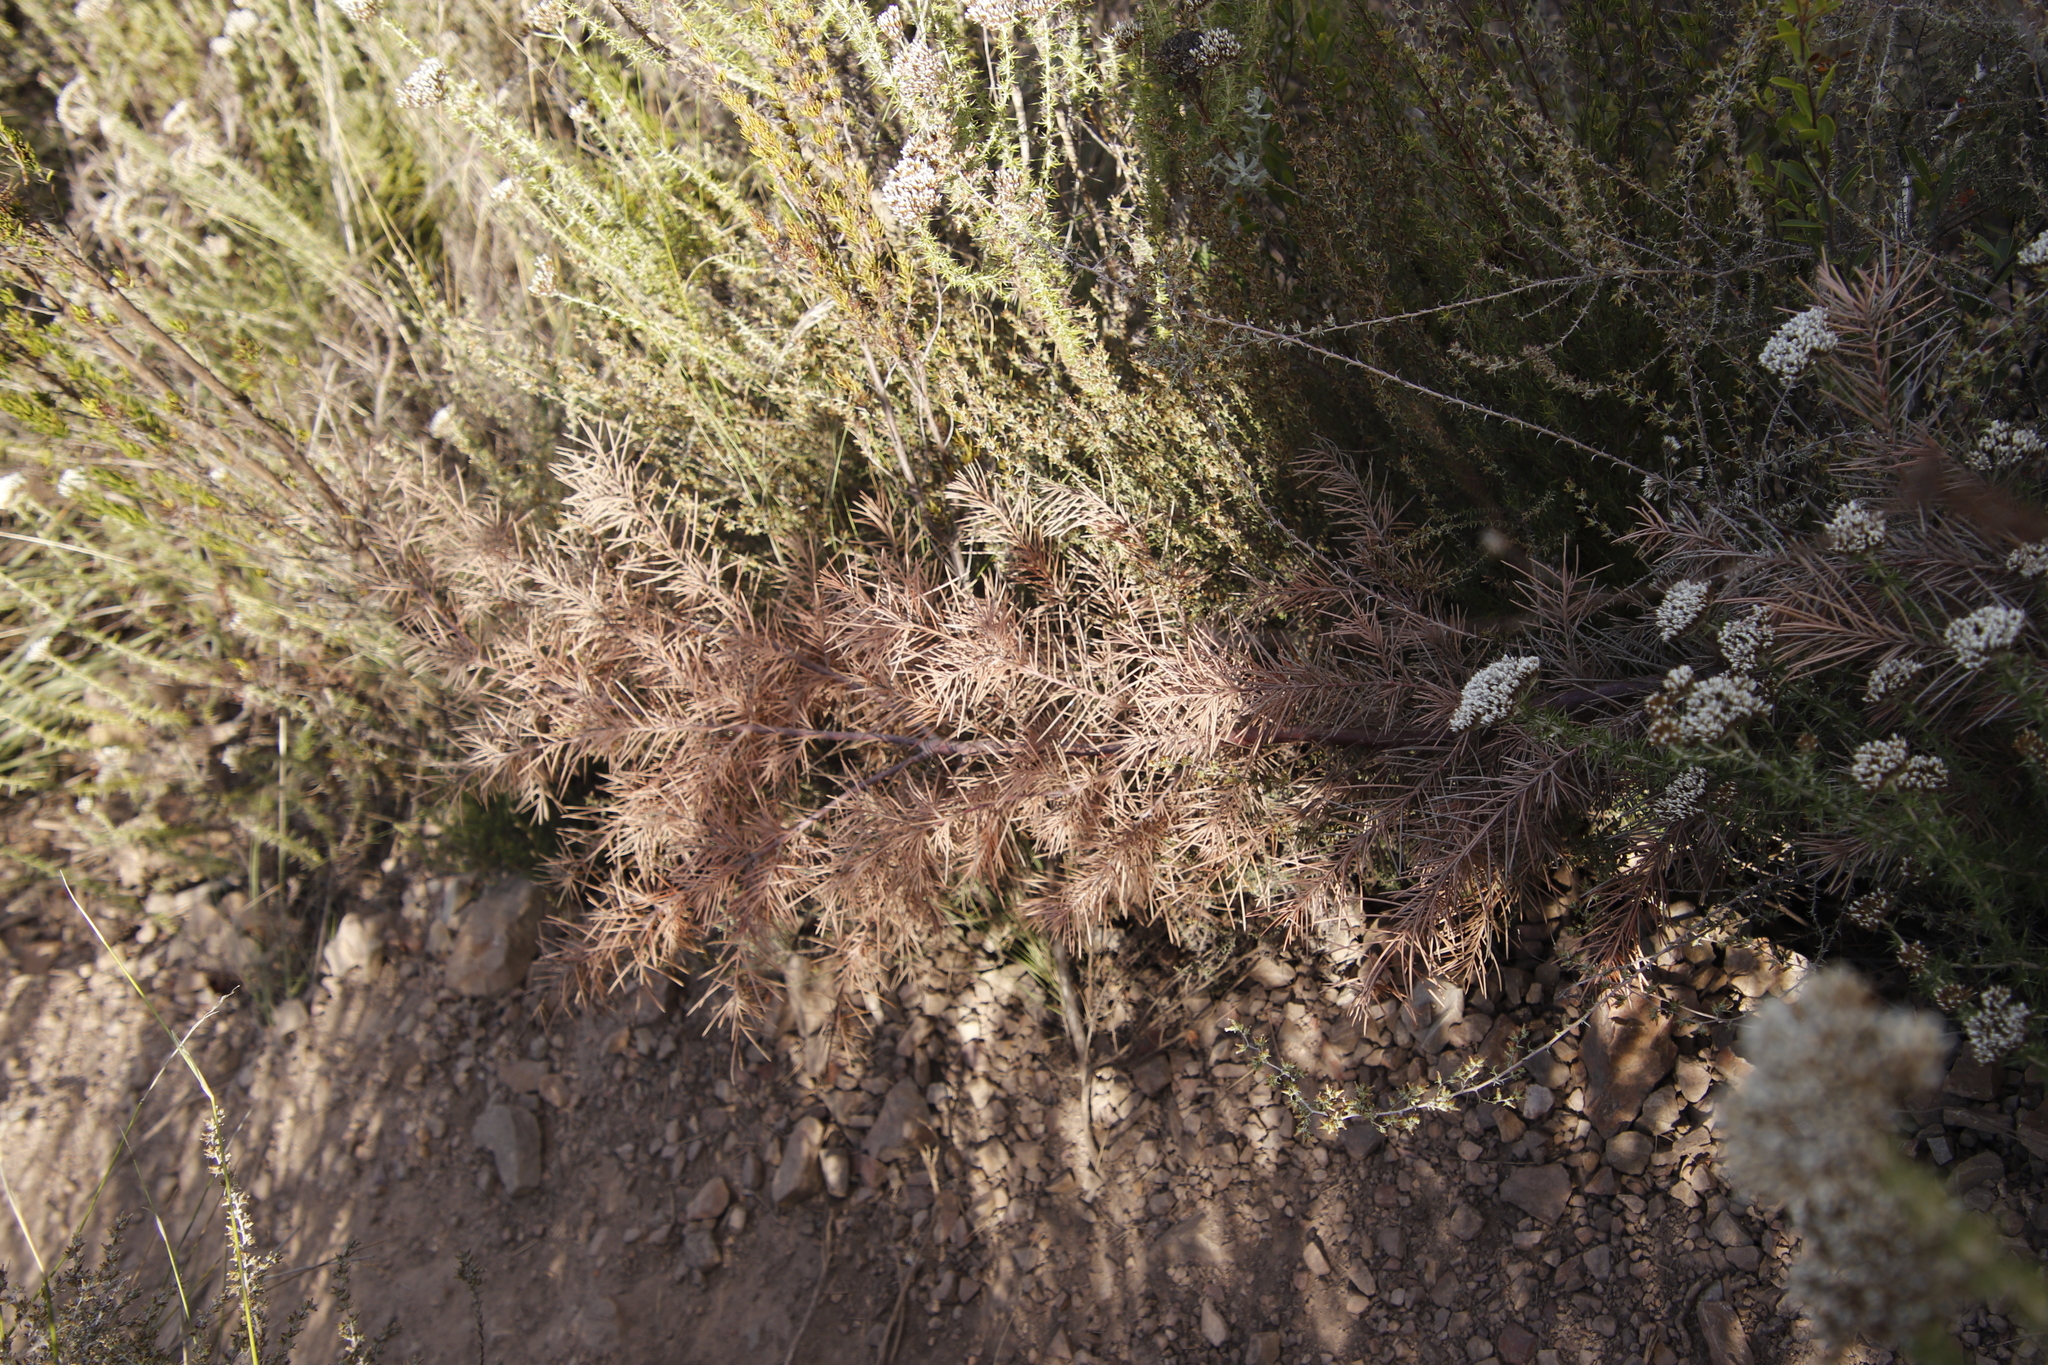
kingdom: Plantae
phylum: Tracheophyta
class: Magnoliopsida
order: Proteales
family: Proteaceae
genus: Hakea
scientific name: Hakea sericea
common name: Needle bush
